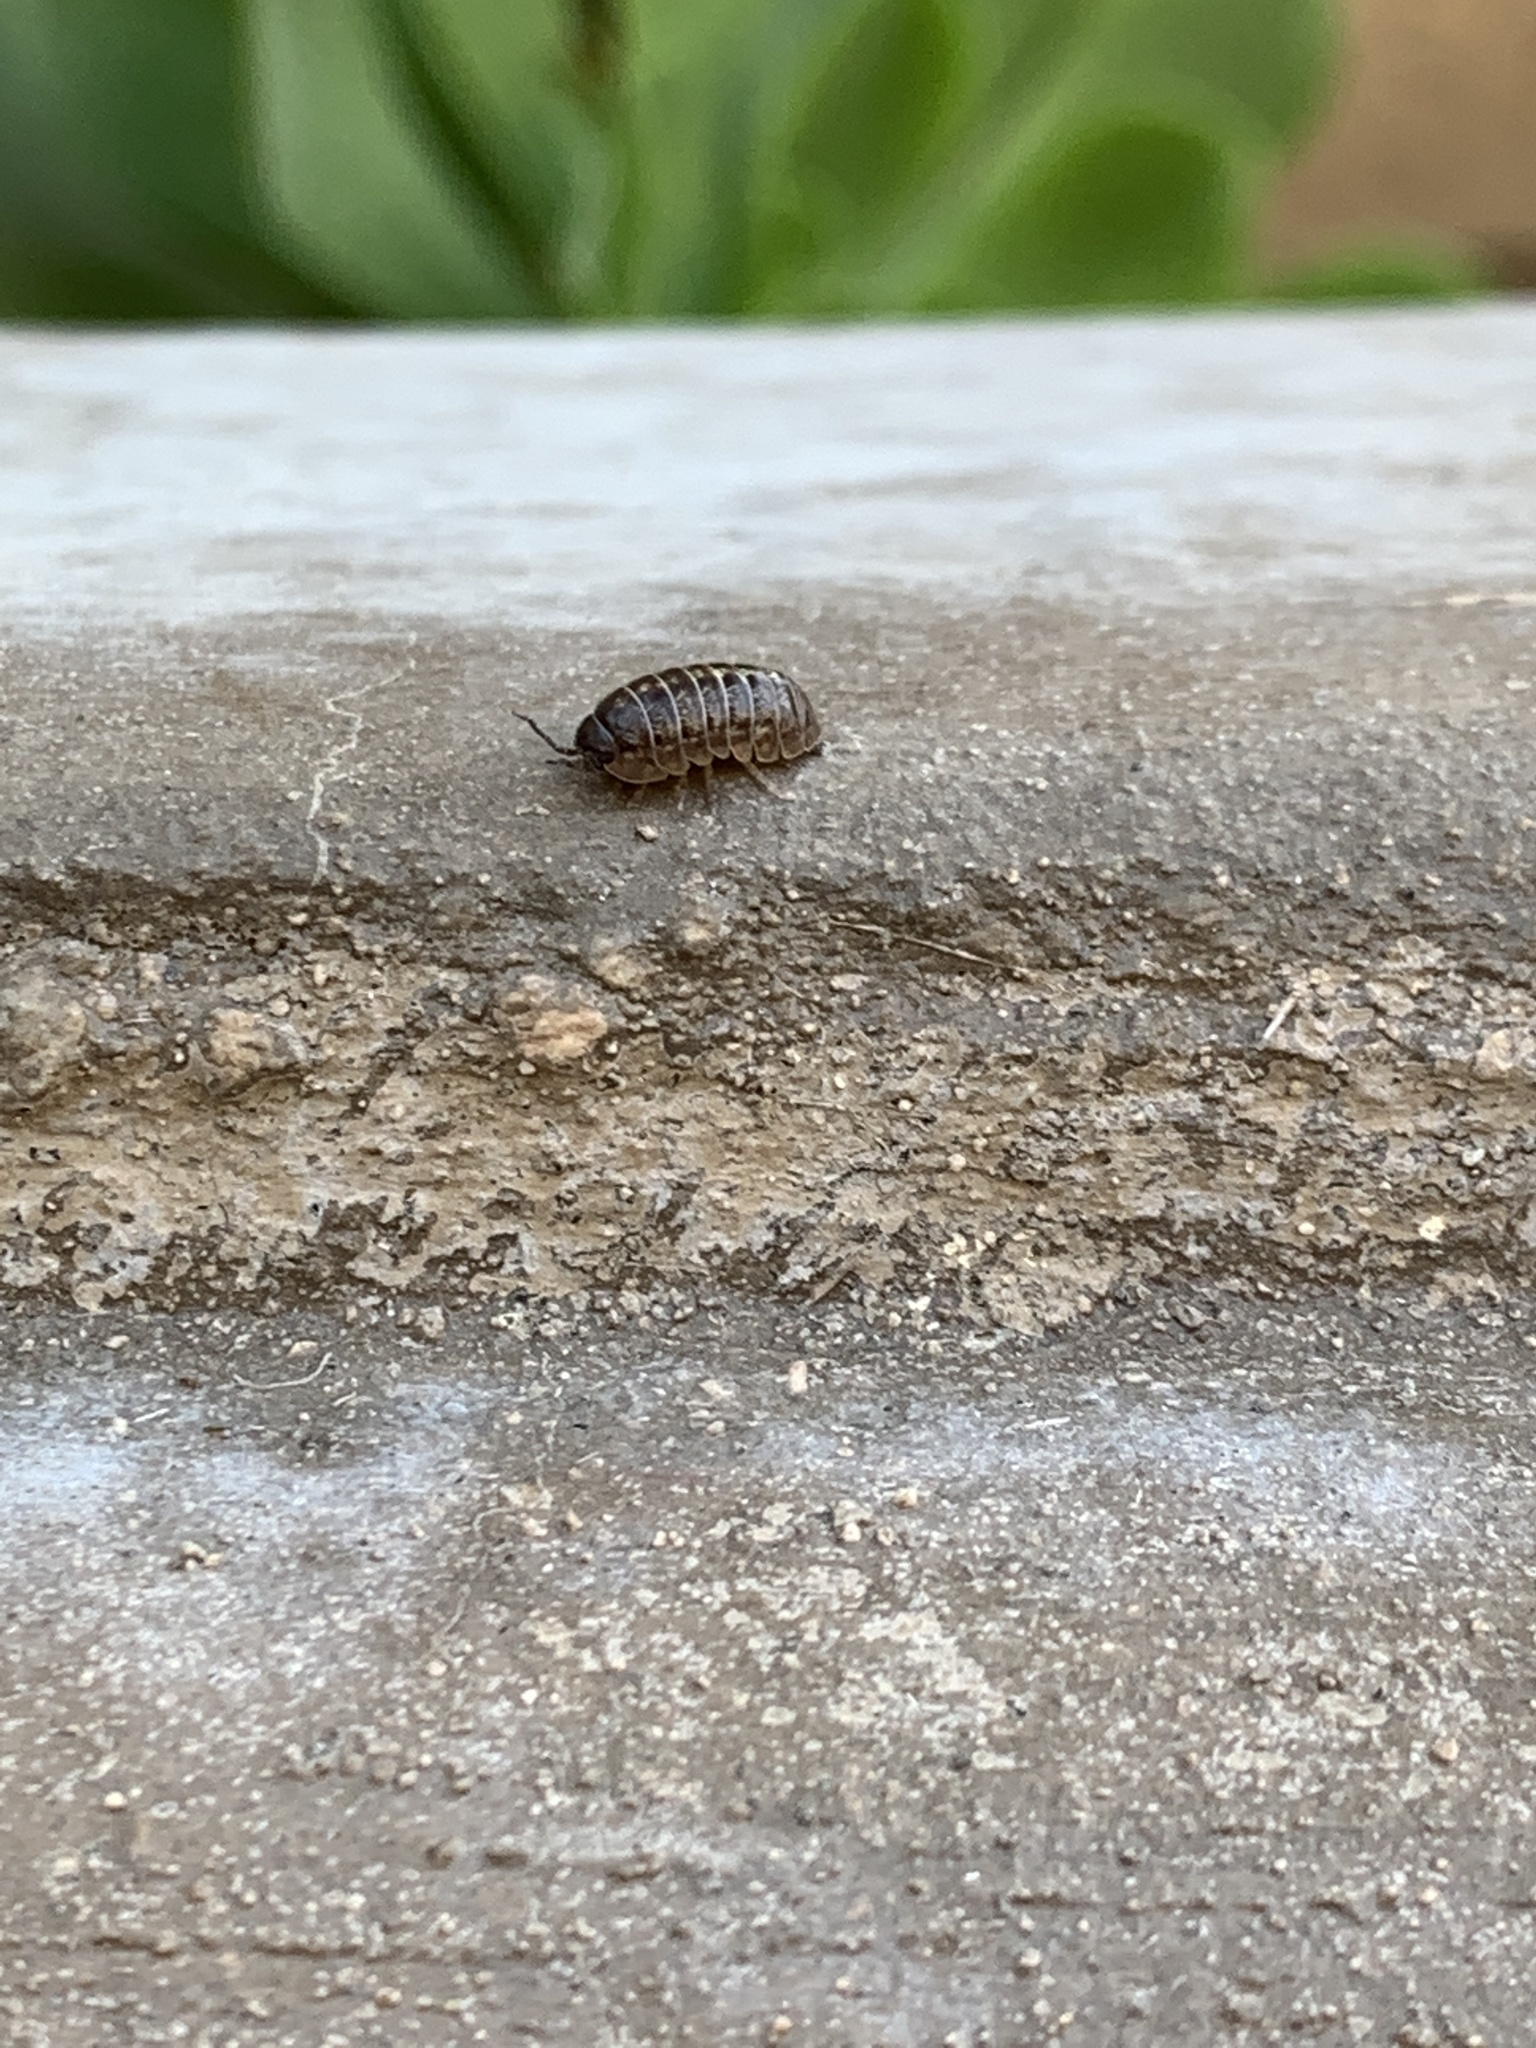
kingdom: Animalia
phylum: Arthropoda
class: Malacostraca
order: Isopoda
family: Armadillidiidae
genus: Armadillidium
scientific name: Armadillidium vulgare
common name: Common pill woodlouse
